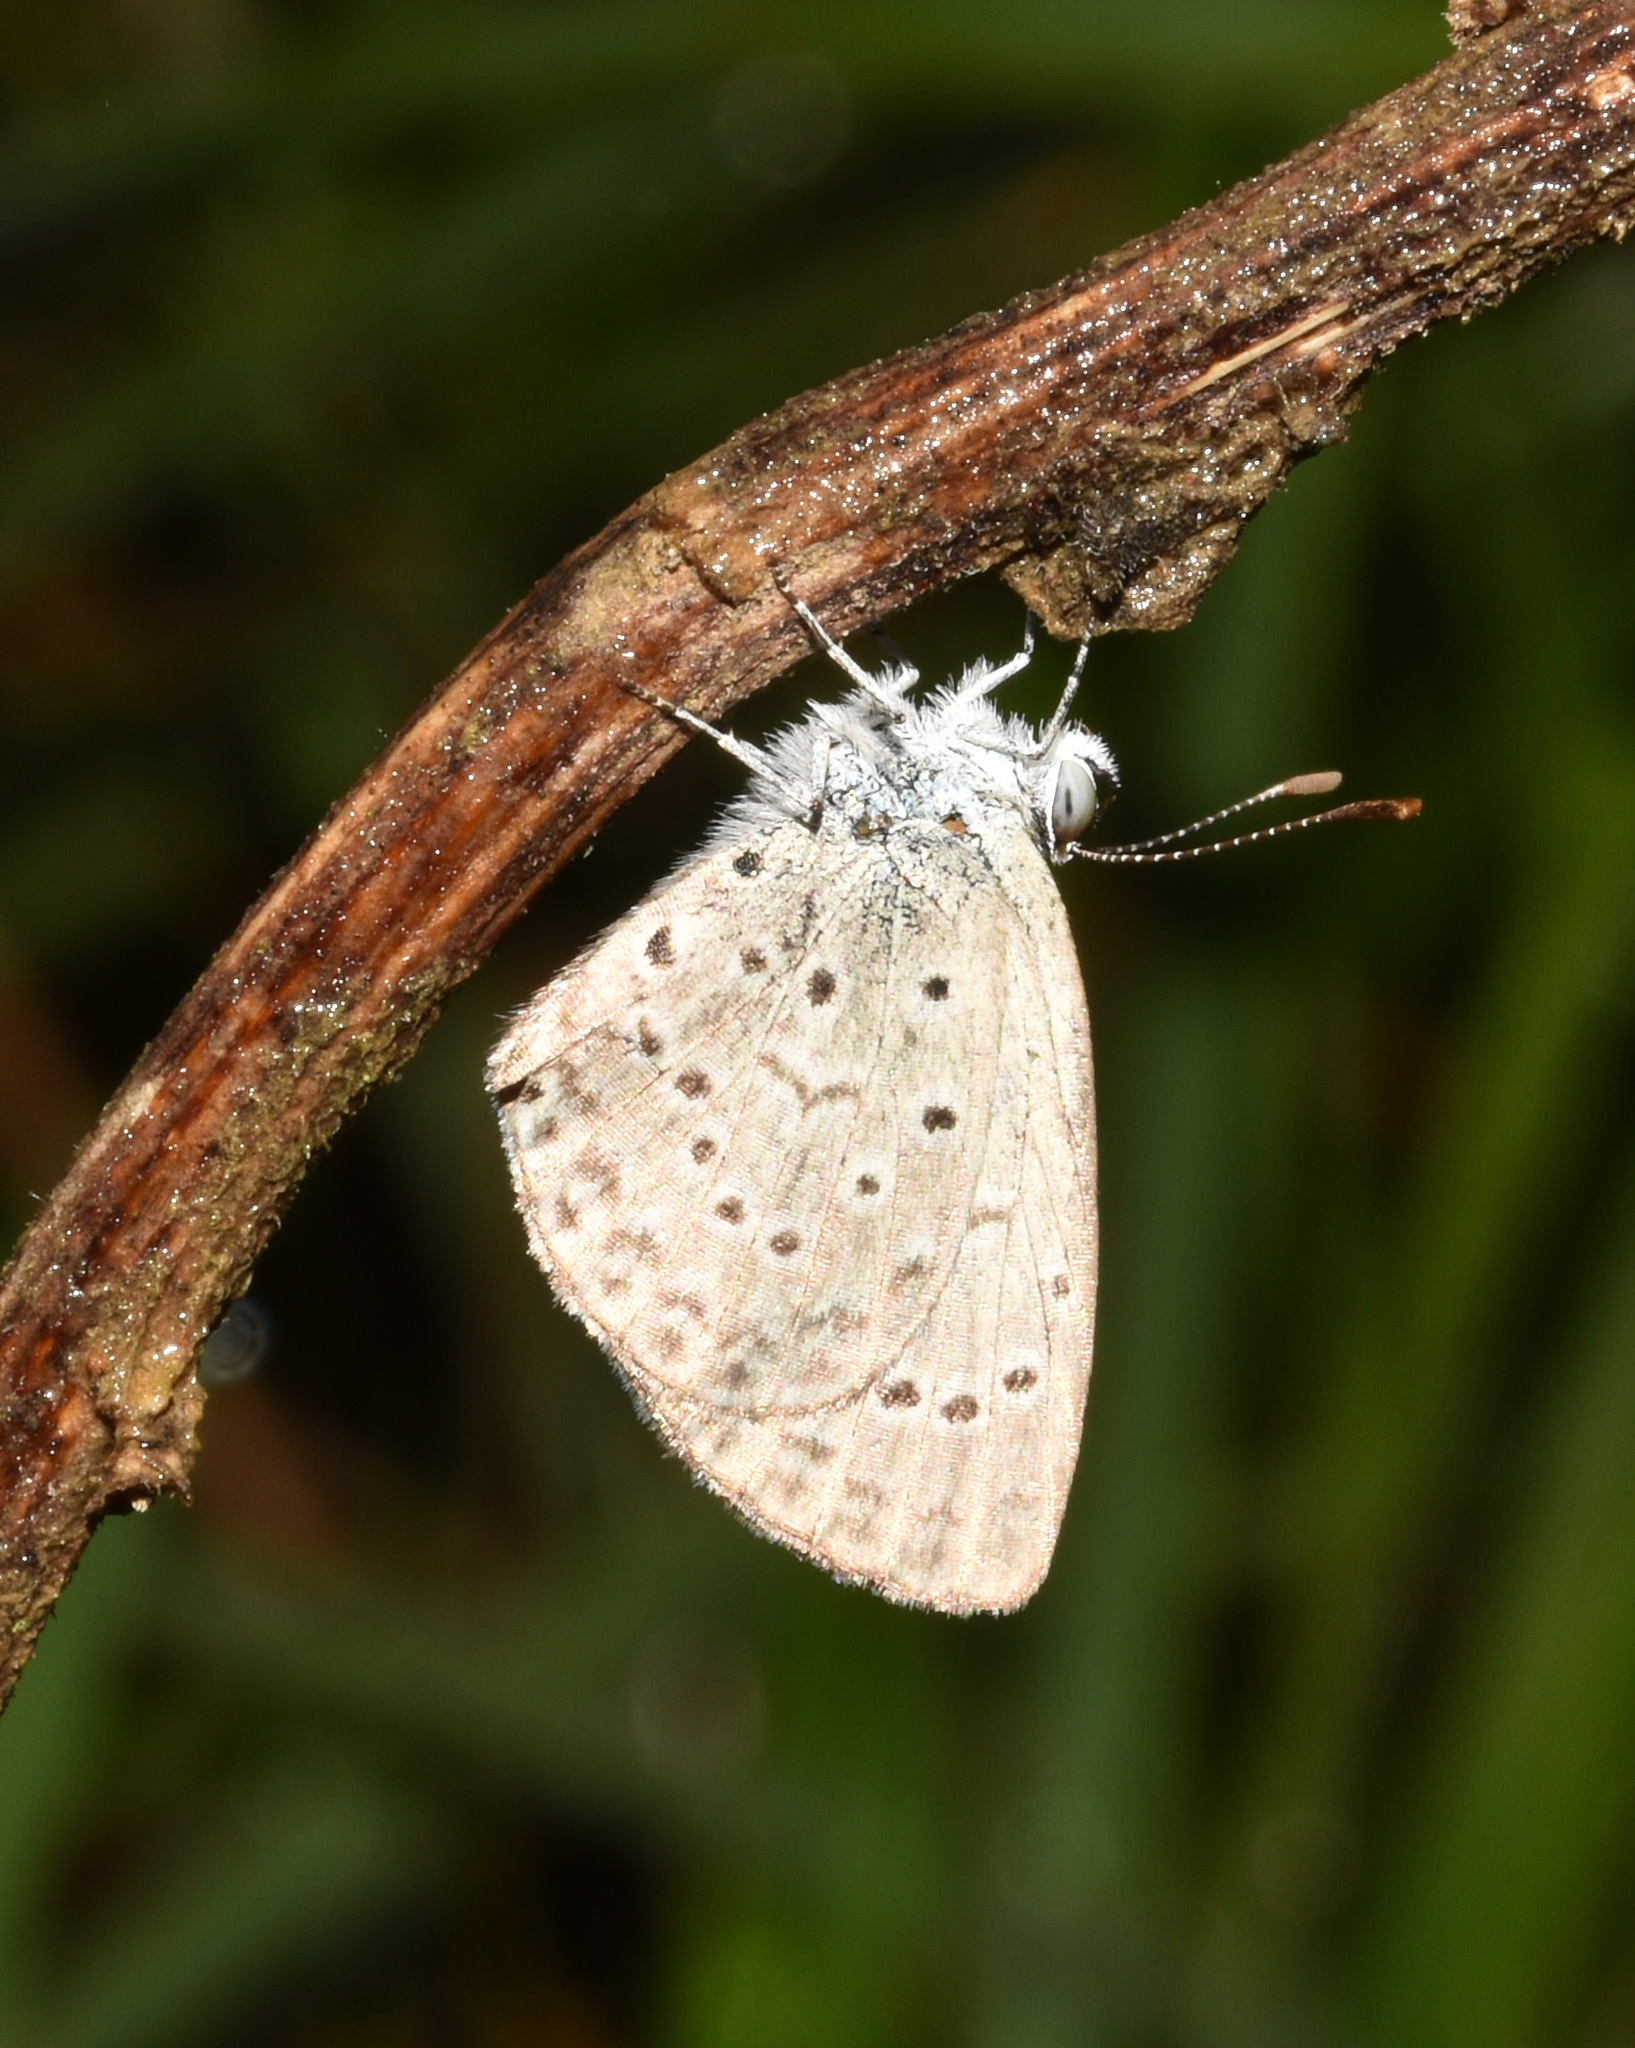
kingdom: Animalia
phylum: Arthropoda
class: Insecta
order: Lepidoptera
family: Lycaenidae
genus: Zizeeria
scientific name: Zizeeria knysna
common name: African grass blue
